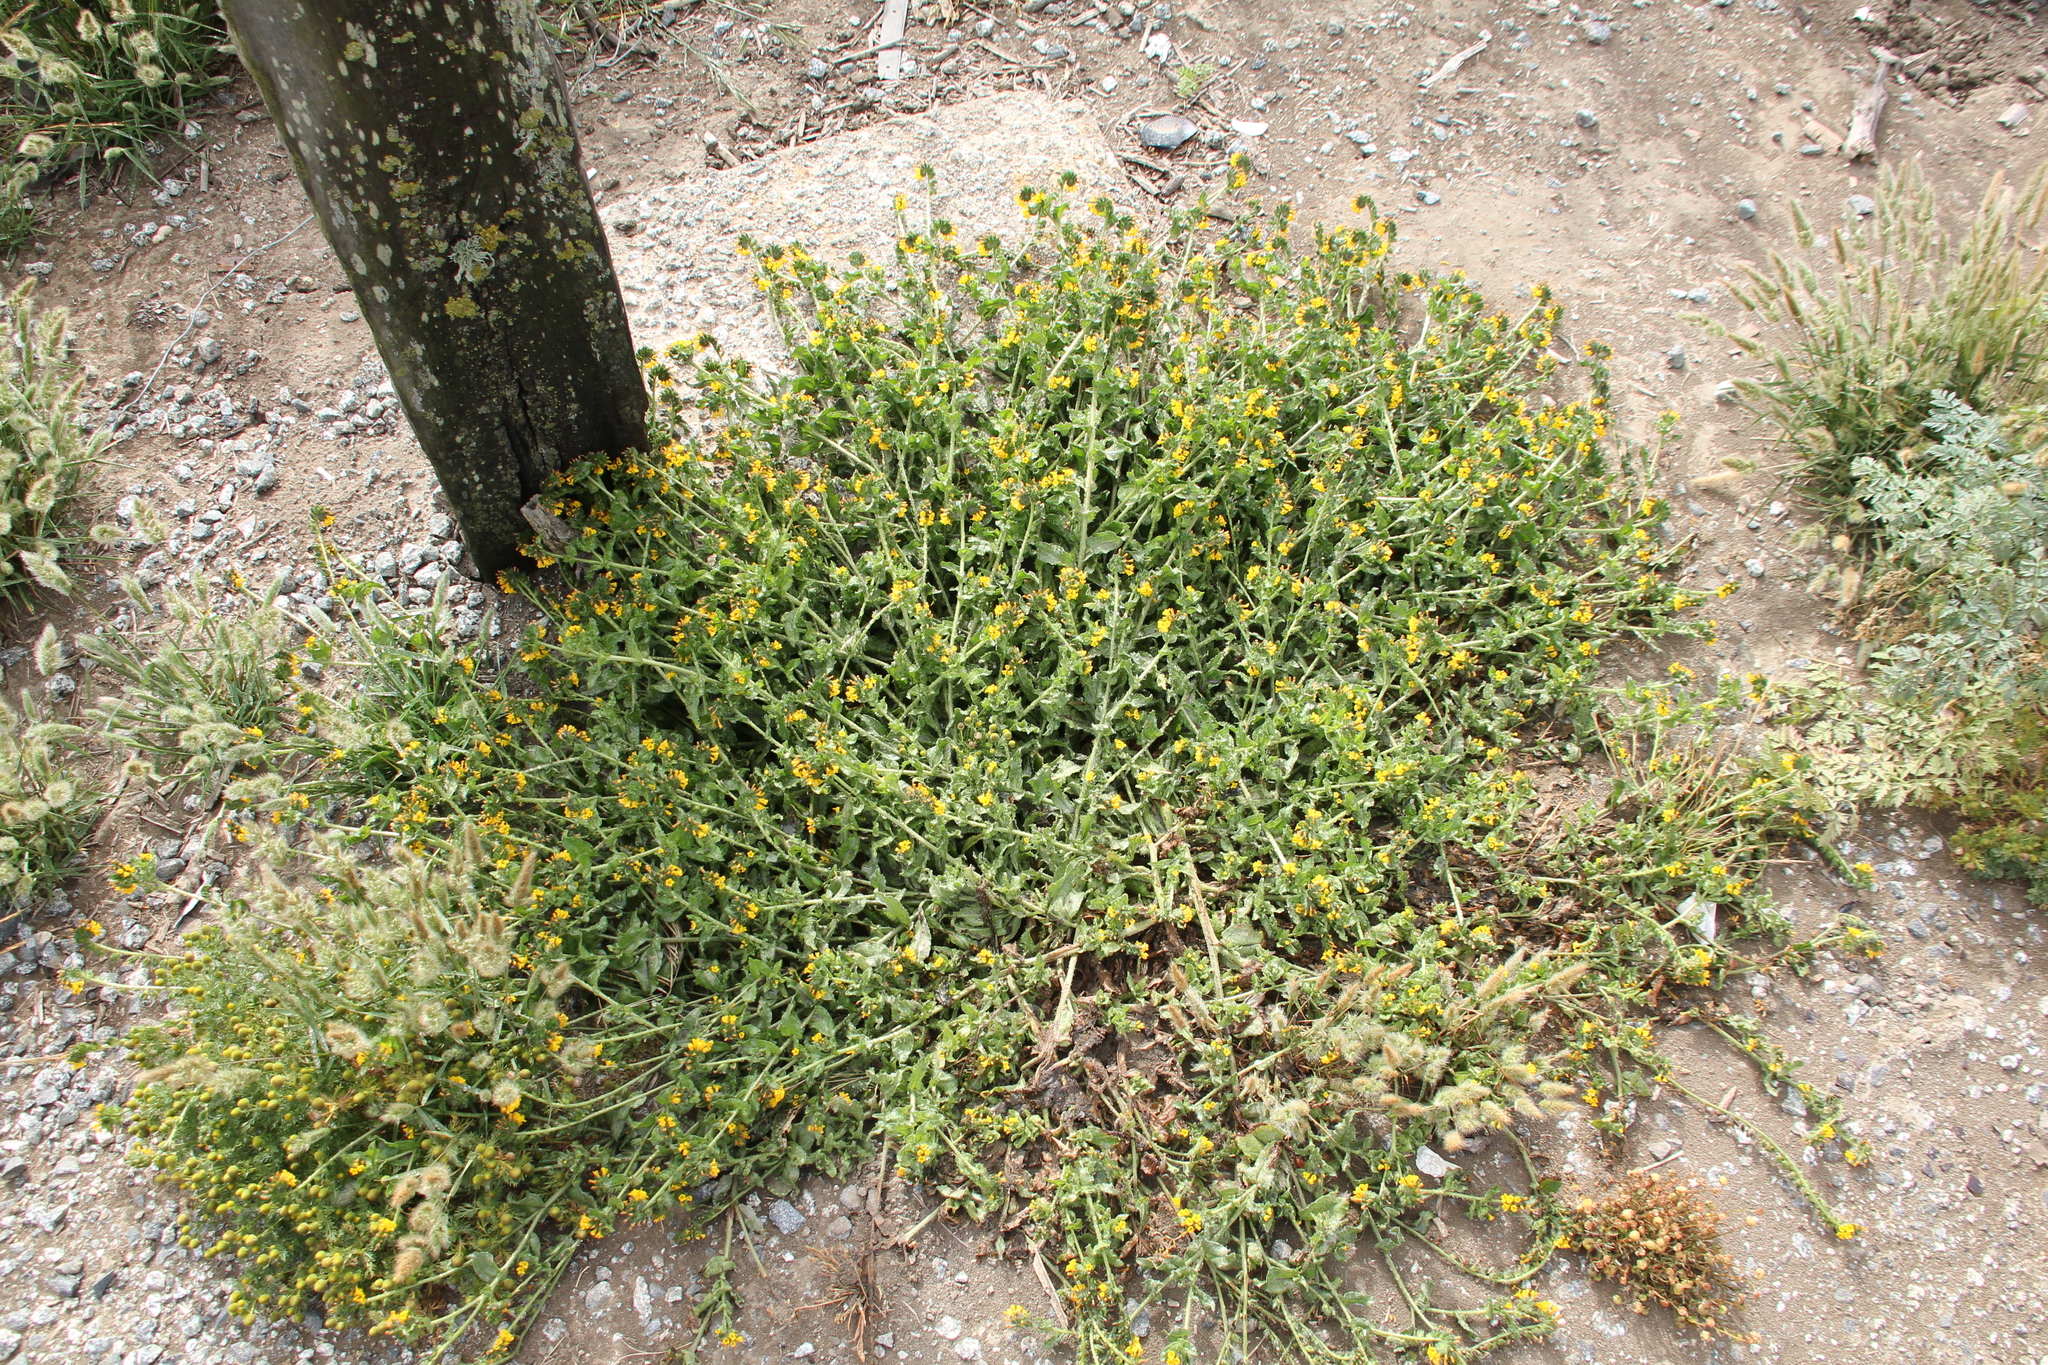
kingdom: Plantae
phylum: Tracheophyta
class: Magnoliopsida
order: Boraginales
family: Boraginaceae
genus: Amsinckia
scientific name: Amsinckia spectabilis
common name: Seaside fiddleneck
